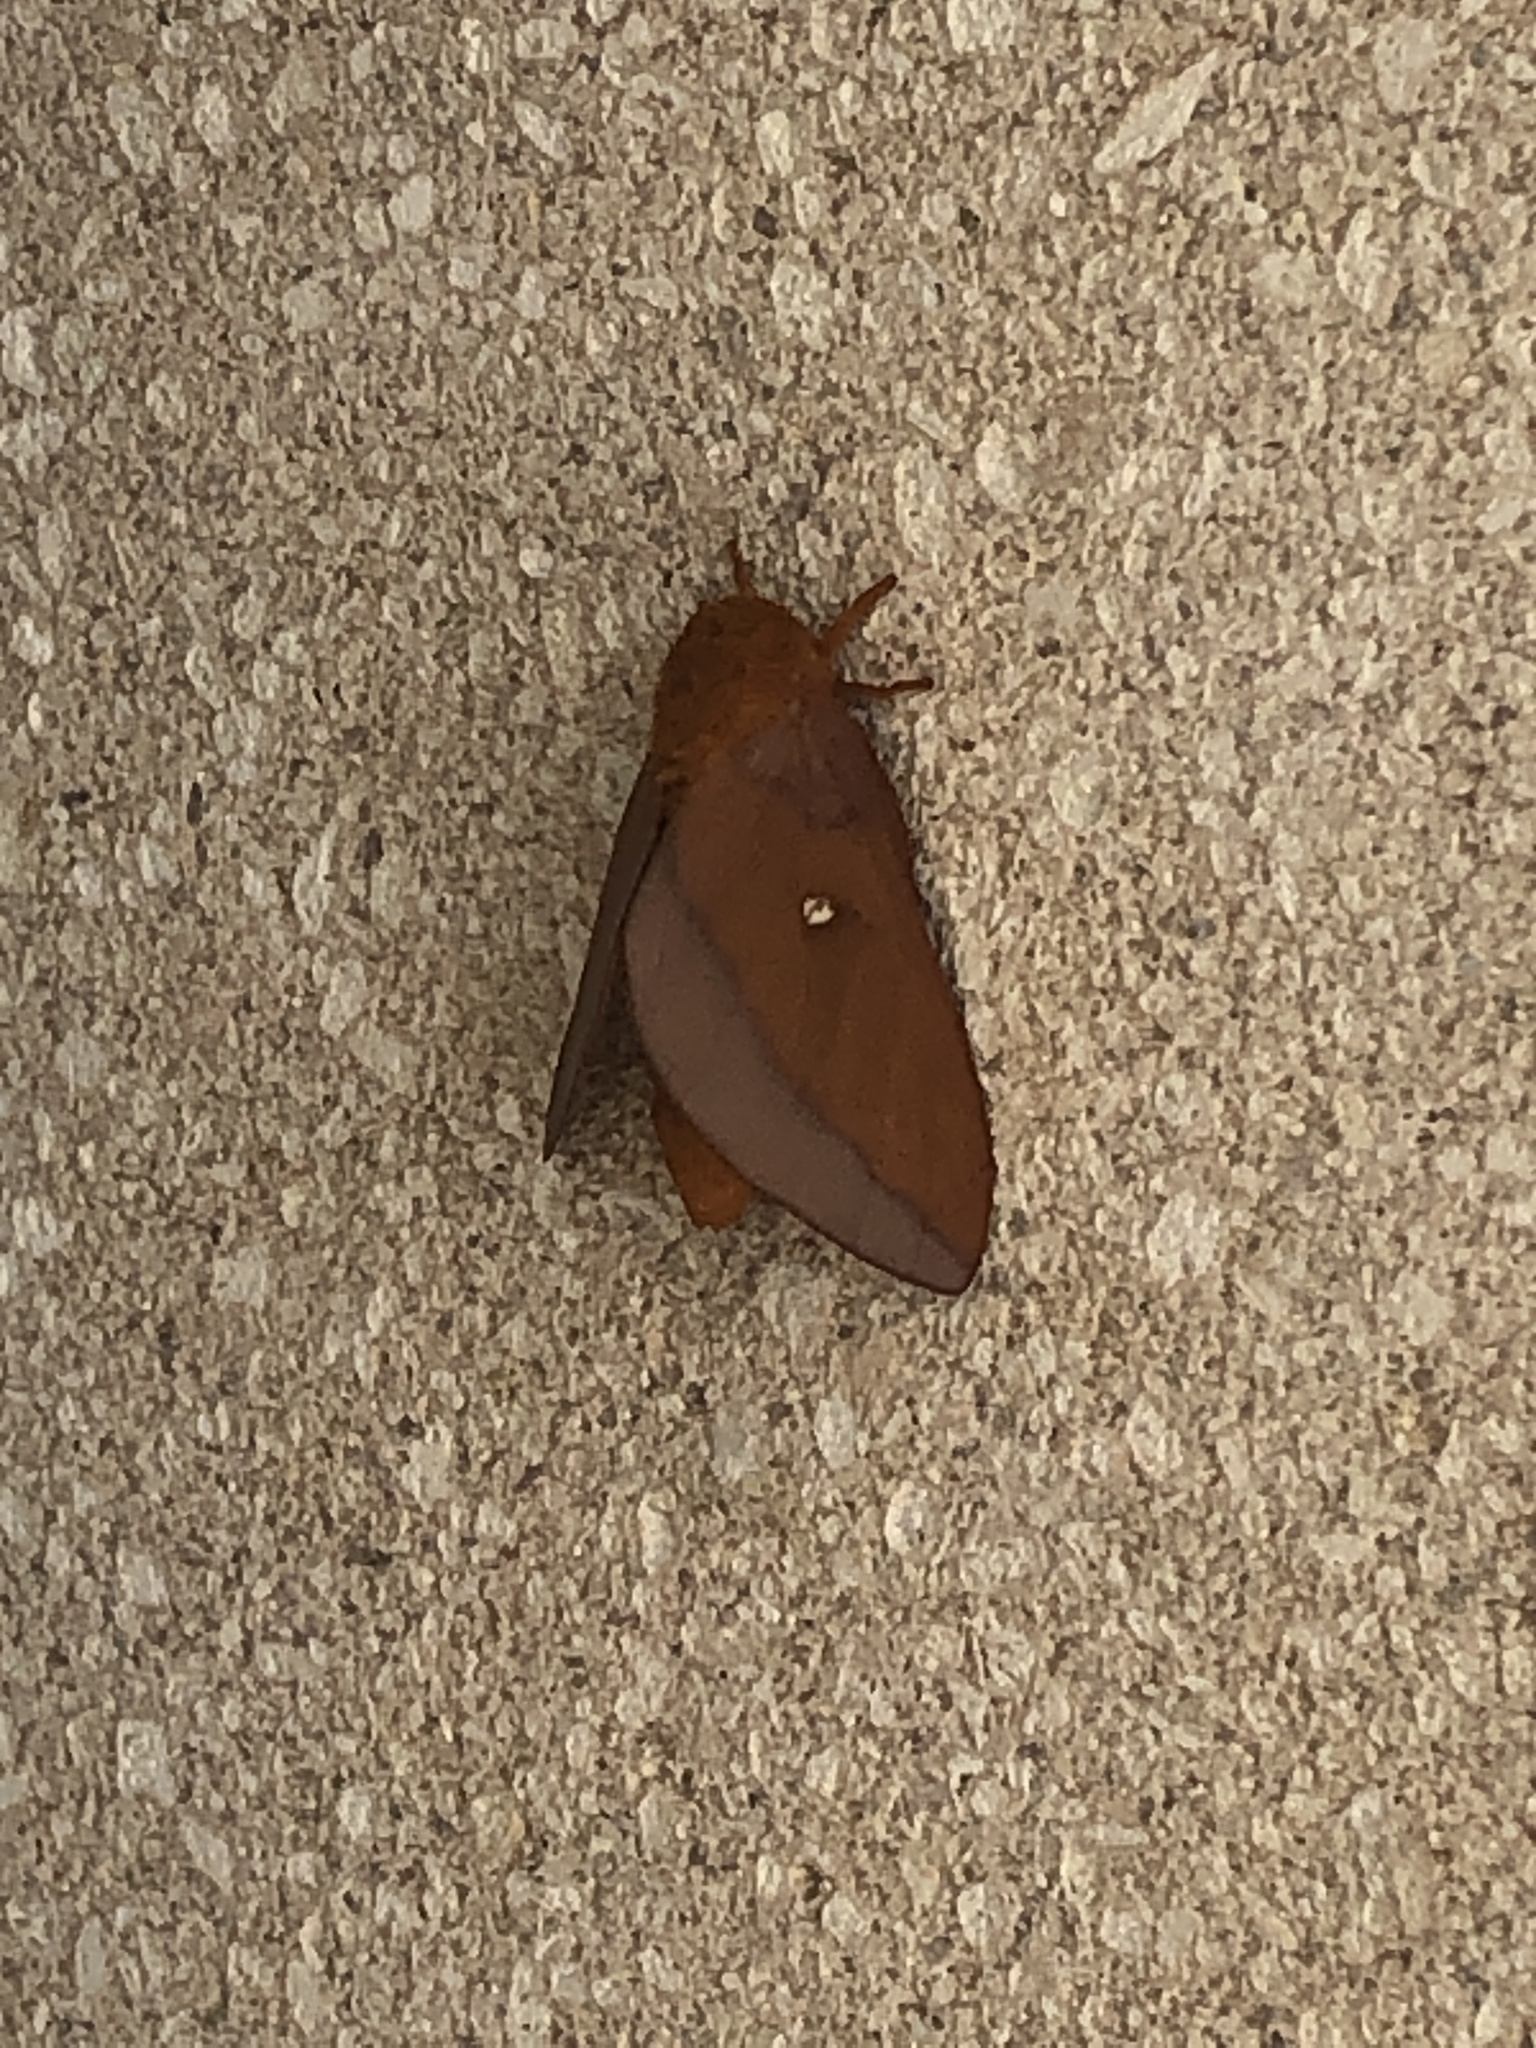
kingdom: Animalia
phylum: Arthropoda
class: Insecta
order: Lepidoptera
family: Saturniidae
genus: Anisota
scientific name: Anisota virginiensis
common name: Pink striped oakworm moth
